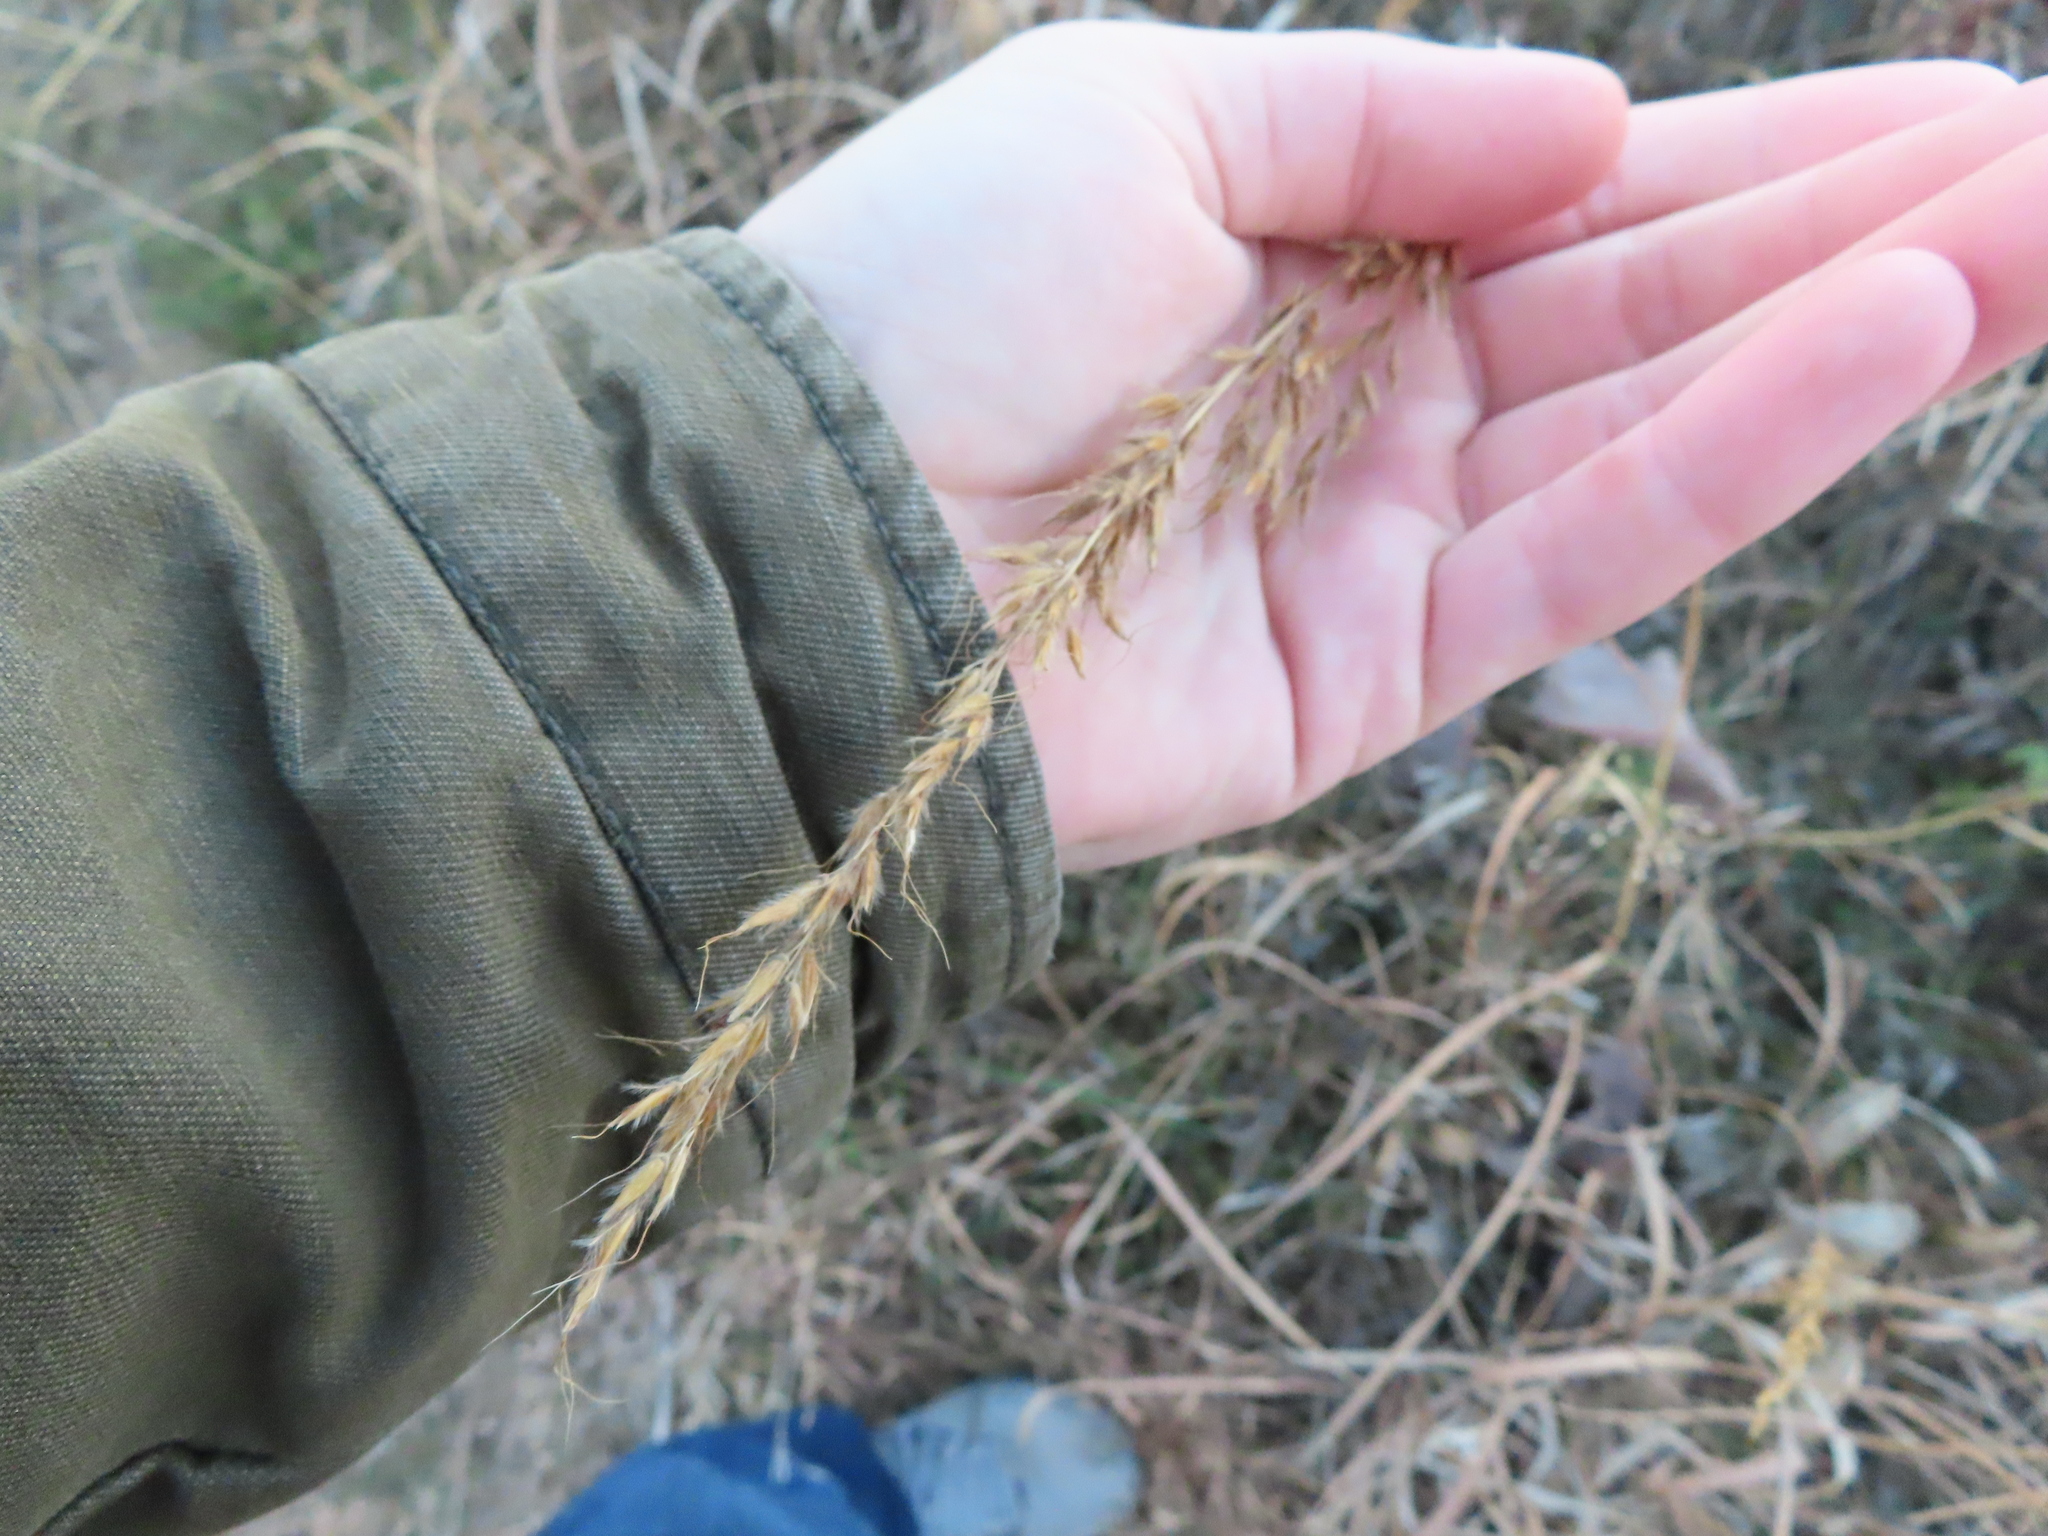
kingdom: Plantae
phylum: Tracheophyta
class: Liliopsida
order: Poales
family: Poaceae
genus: Sorghastrum
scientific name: Sorghastrum nutans
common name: Indian grass
